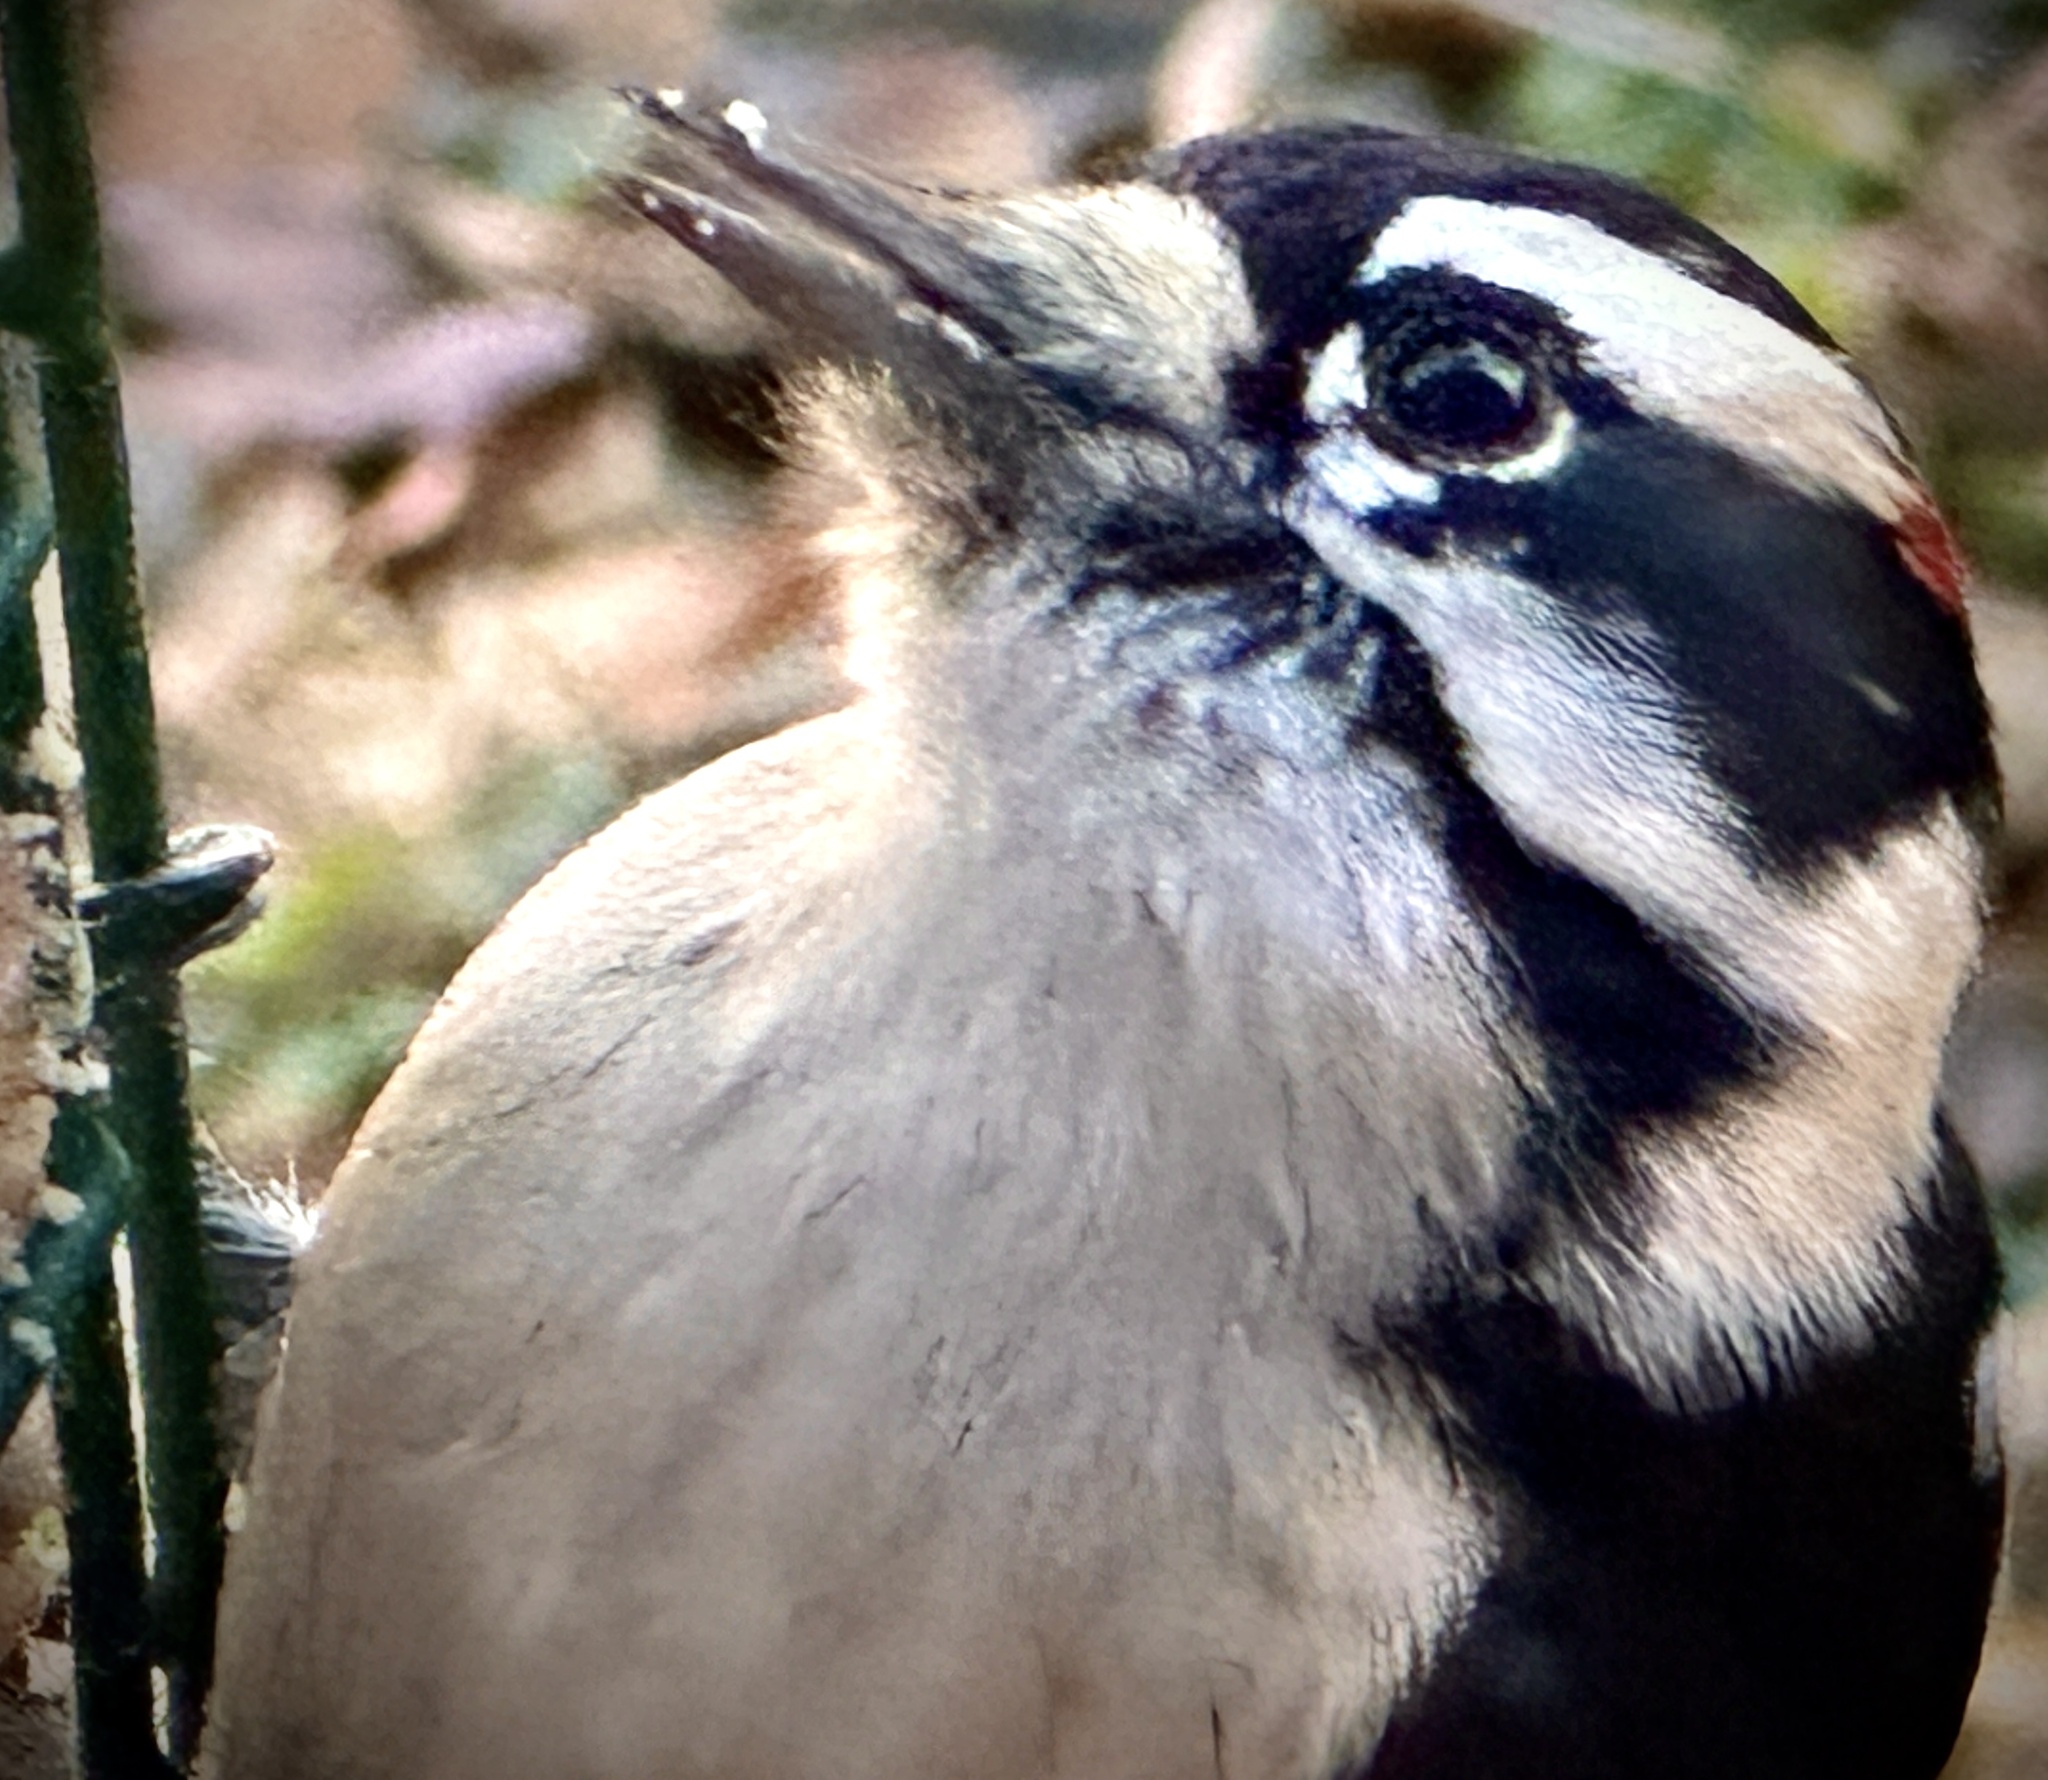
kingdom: Animalia
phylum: Chordata
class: Aves
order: Piciformes
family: Picidae
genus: Dryobates
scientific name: Dryobates pubescens
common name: Downy woodpecker
